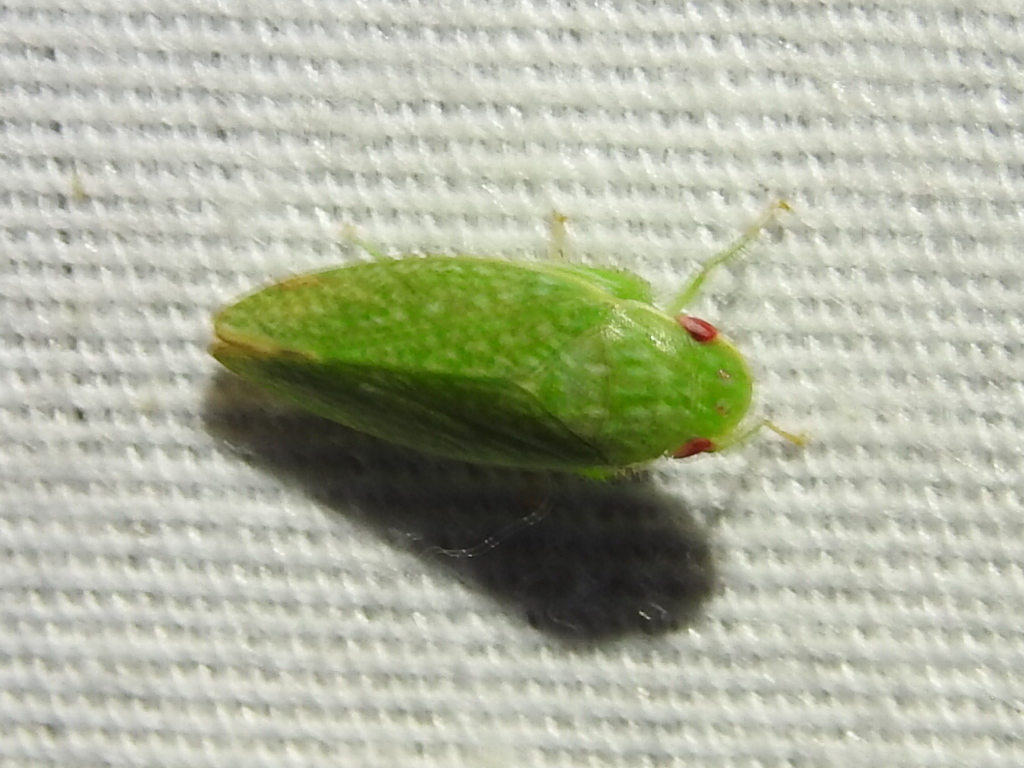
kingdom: Animalia
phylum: Arthropoda
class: Insecta
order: Hemiptera
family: Cicadellidae
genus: Rugosana
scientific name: Rugosana querci
